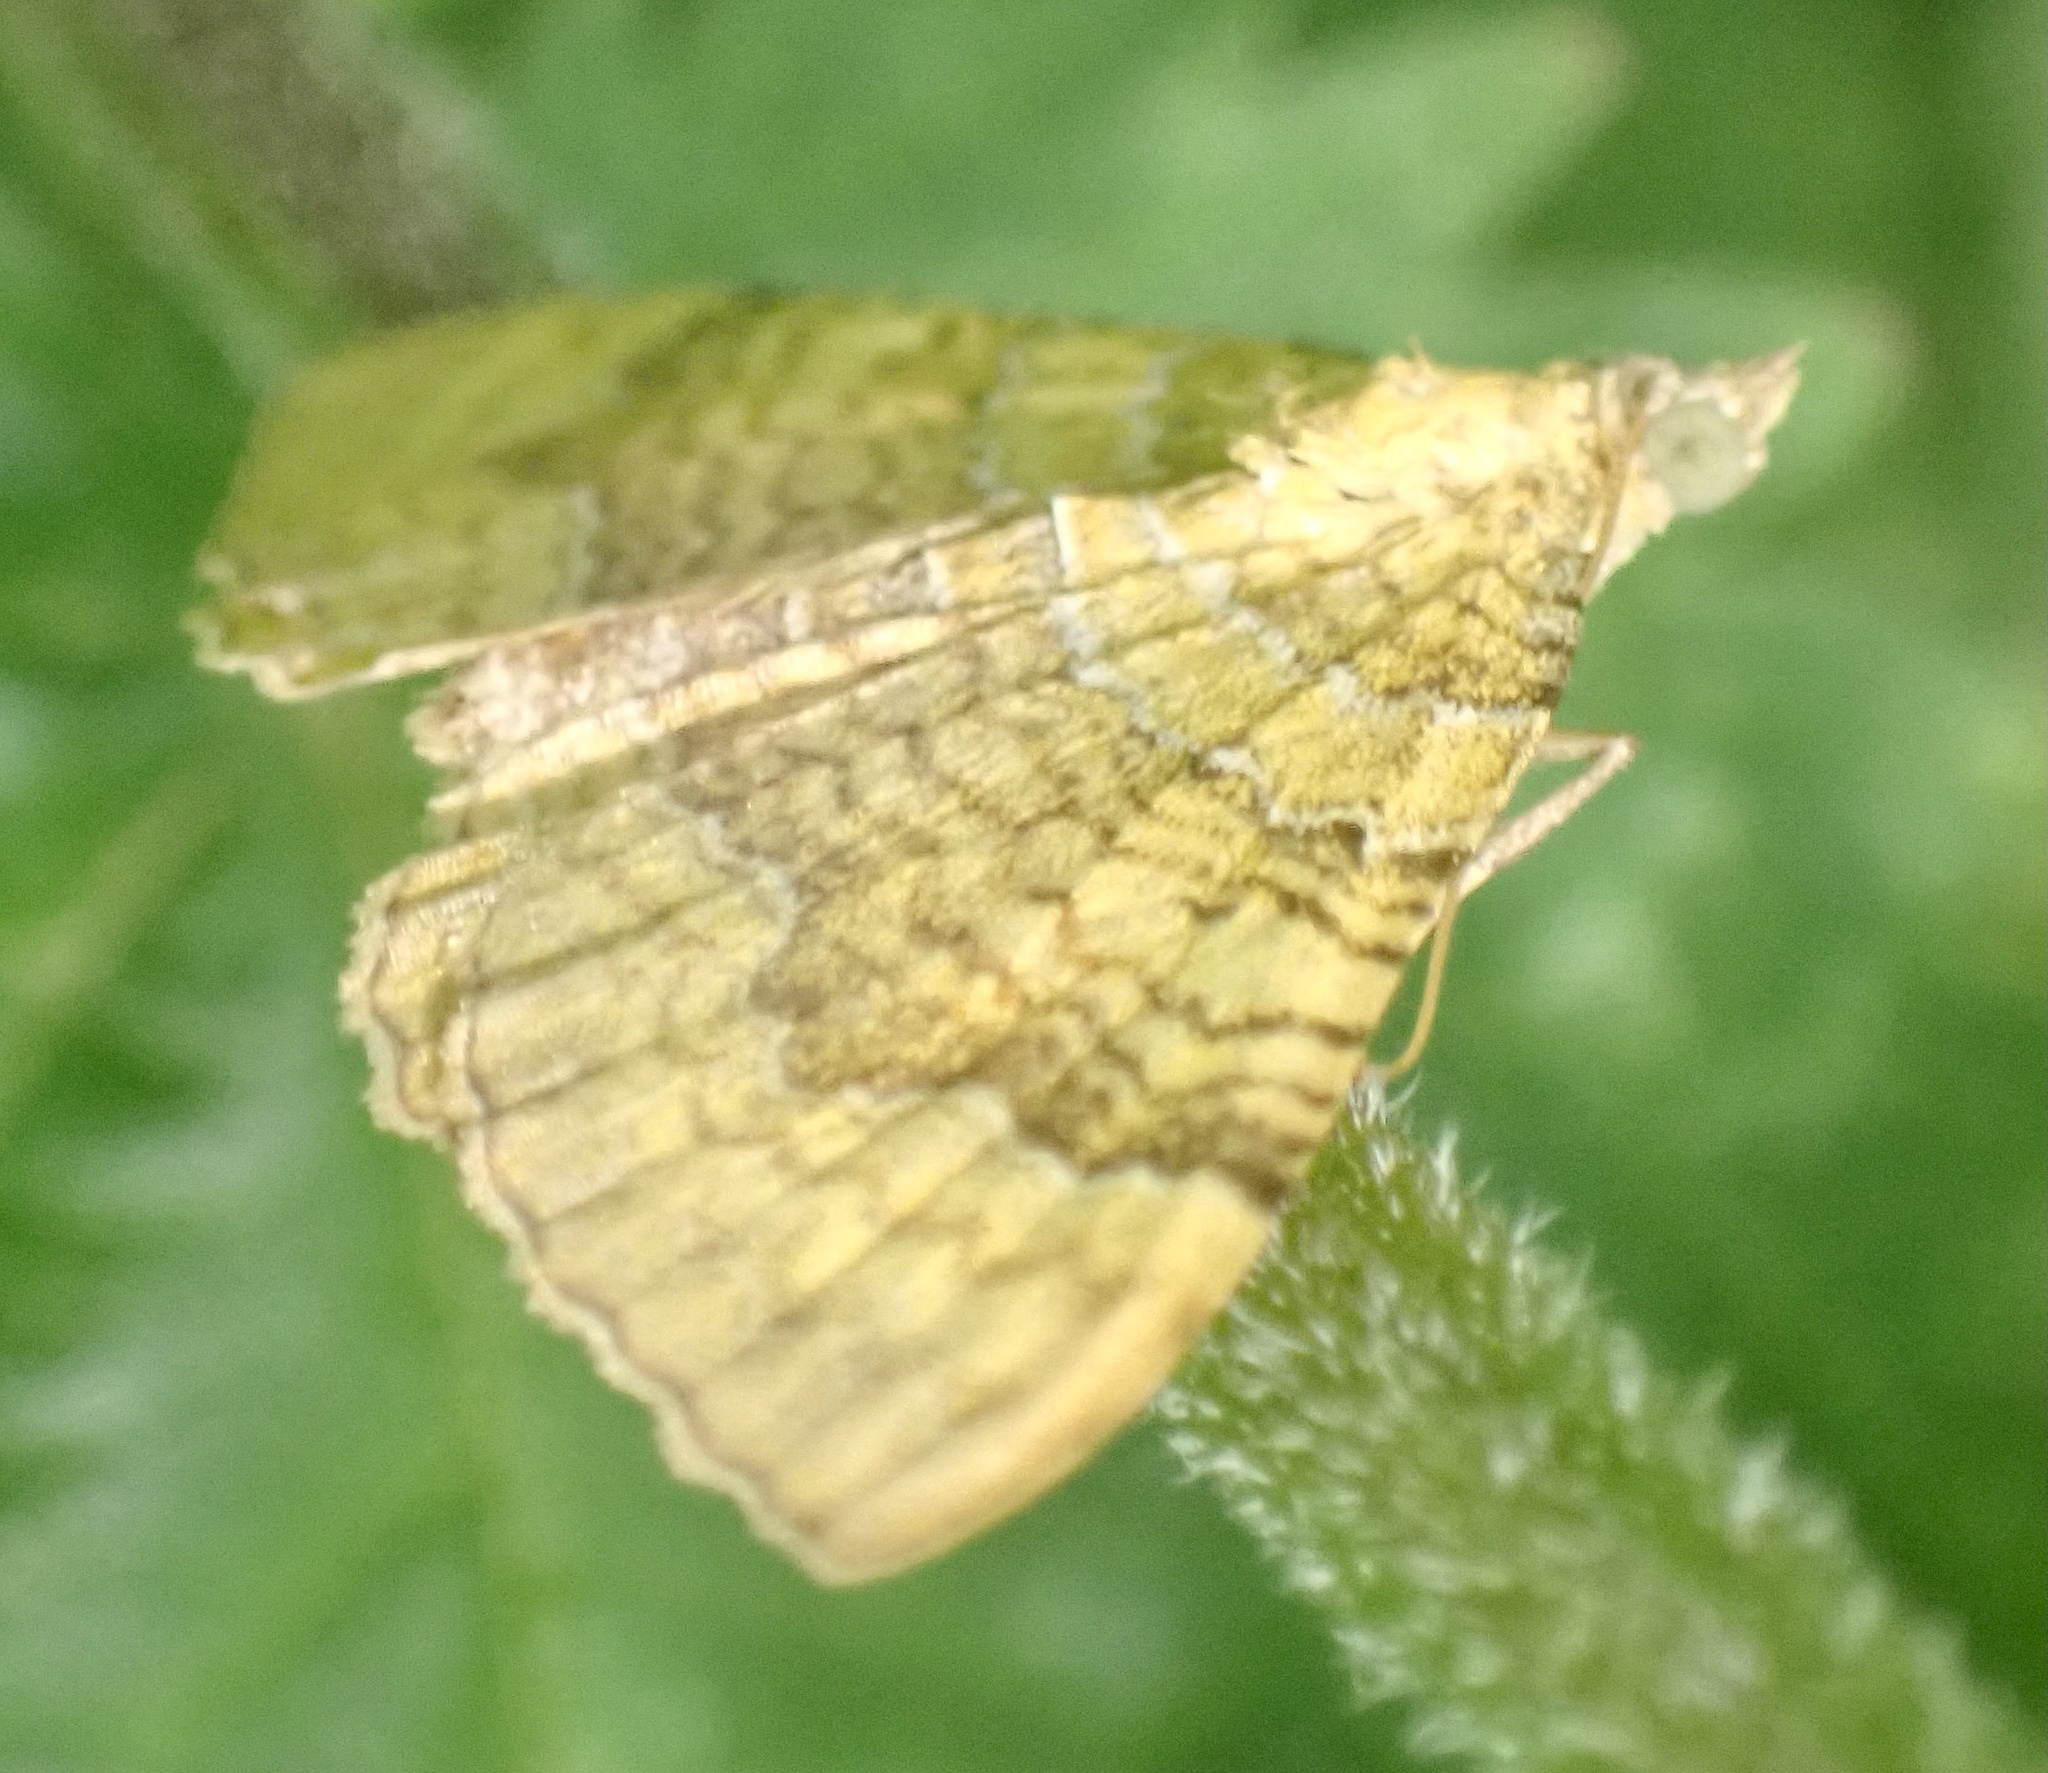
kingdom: Animalia
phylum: Arthropoda
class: Insecta
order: Lepidoptera
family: Geometridae
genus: Camptogramma
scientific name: Camptogramma bilineata
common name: Yellow shell
